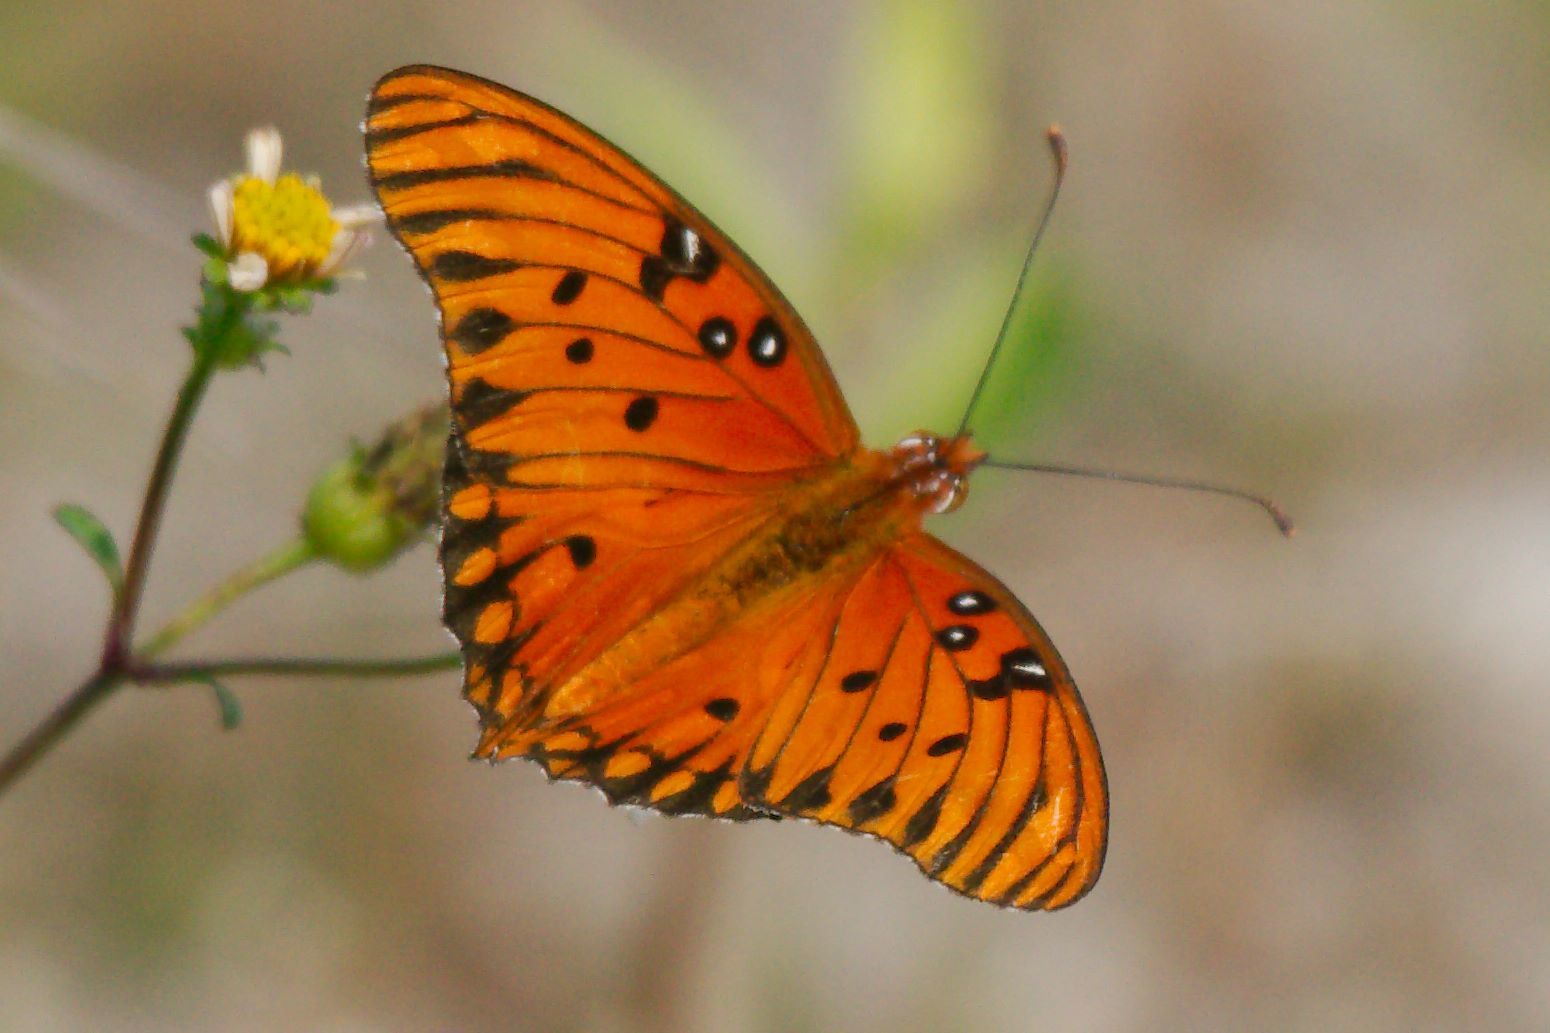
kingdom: Animalia
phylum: Arthropoda
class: Insecta
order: Lepidoptera
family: Nymphalidae
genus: Dione
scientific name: Dione vanillae
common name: Gulf fritillary
